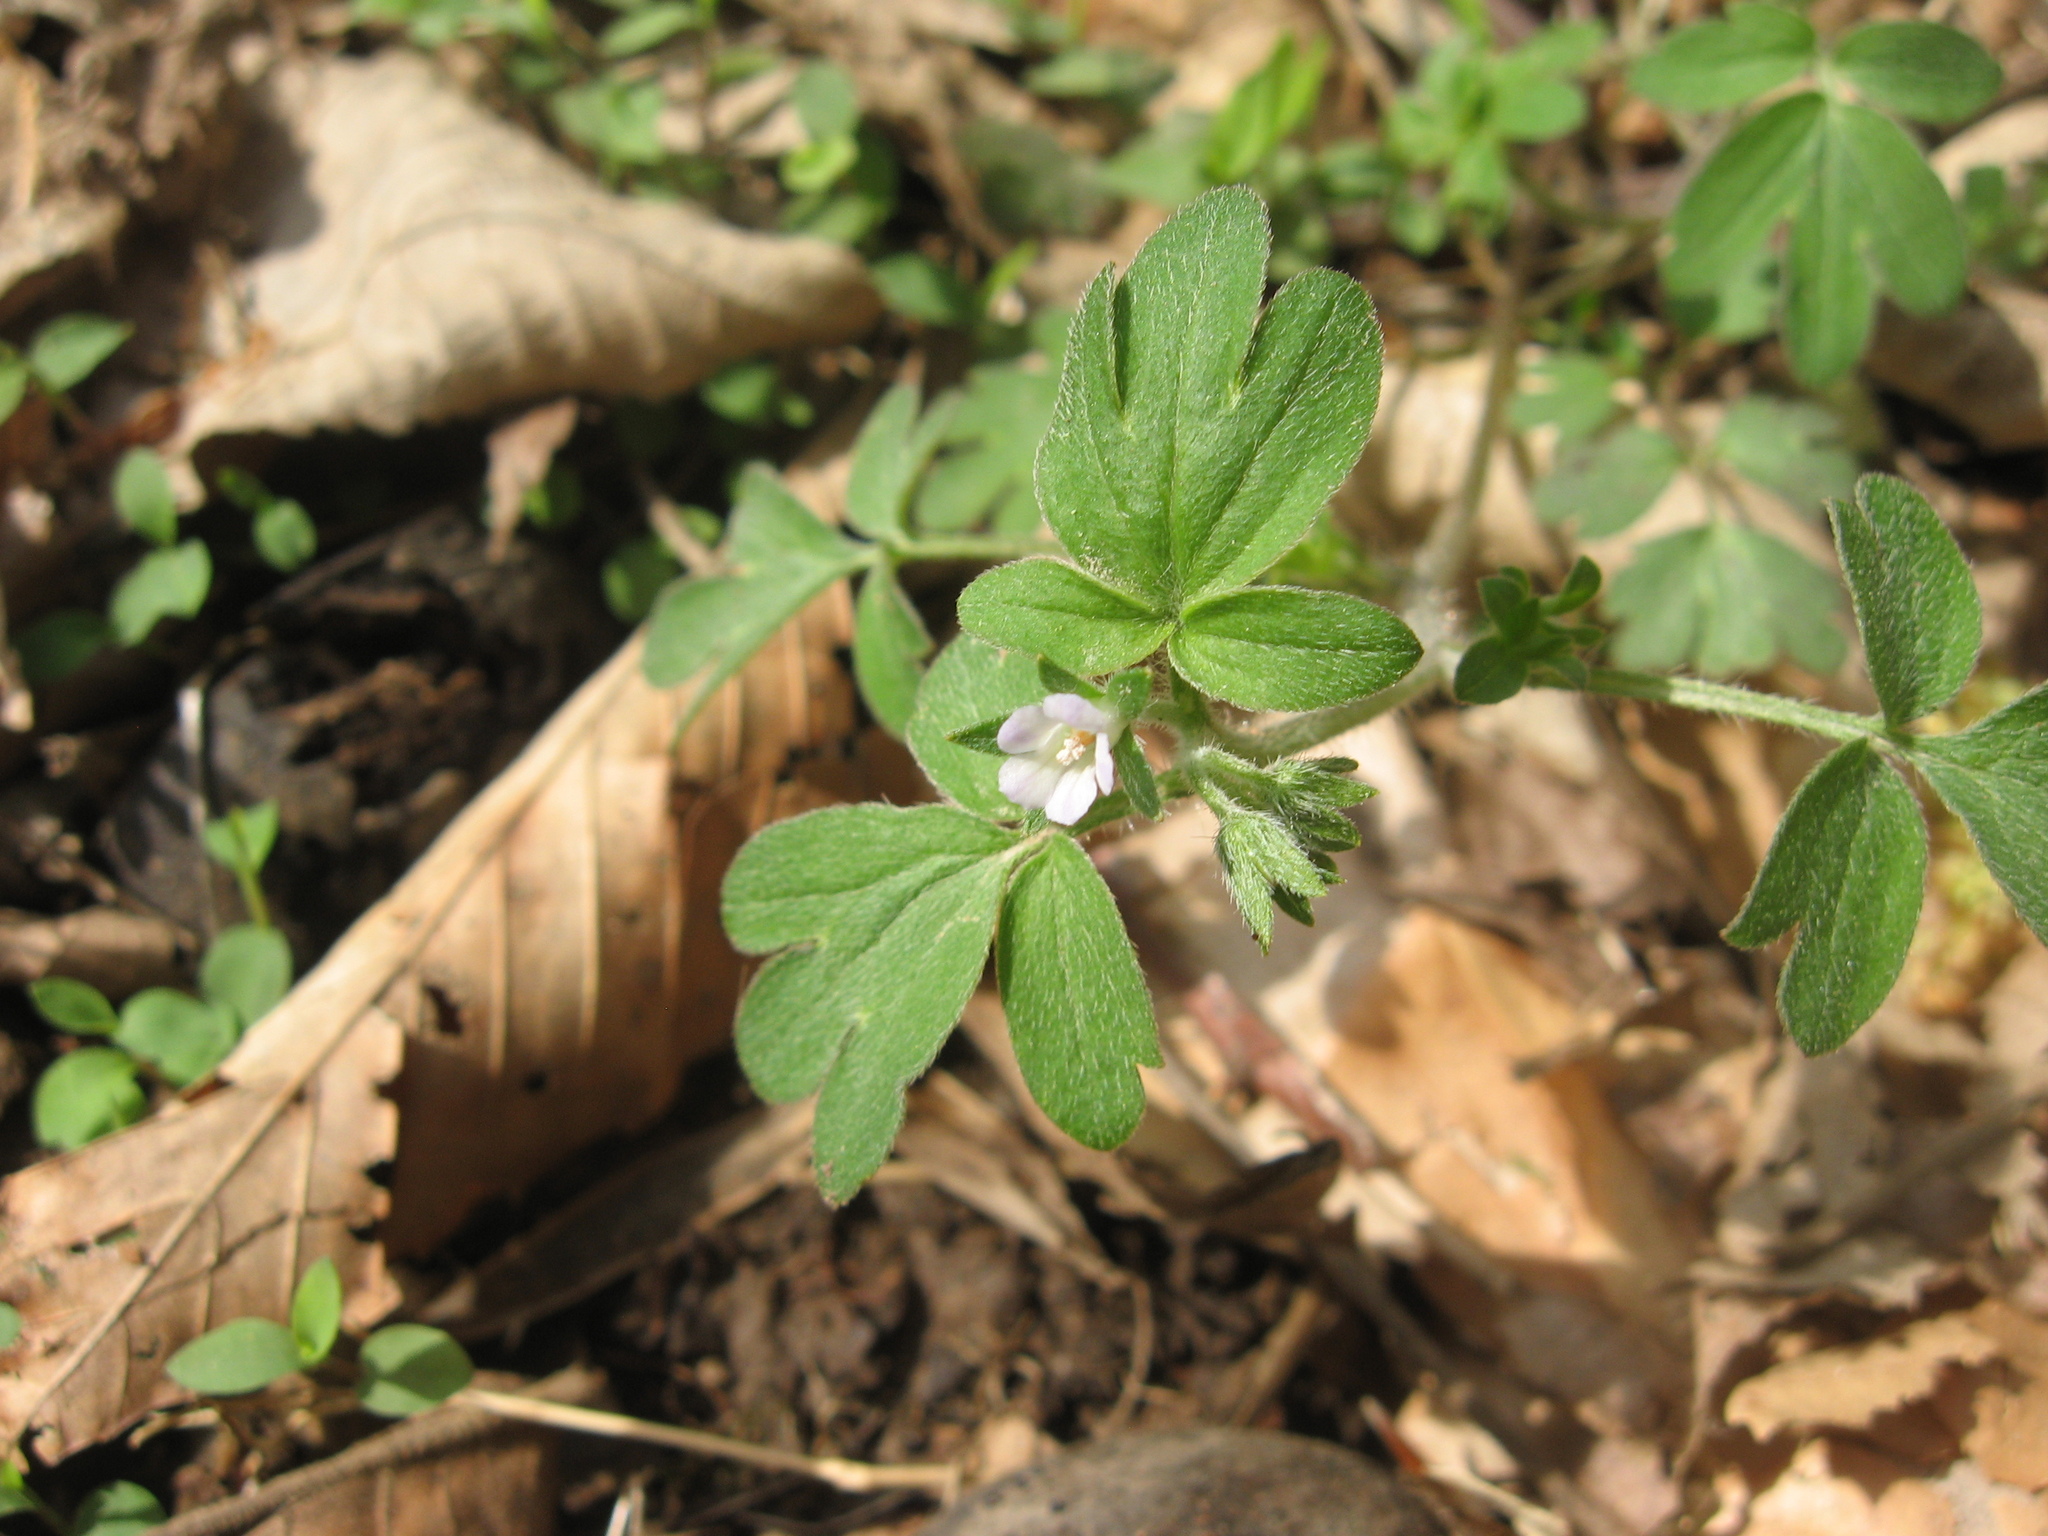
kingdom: Plantae
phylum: Tracheophyta
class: Magnoliopsida
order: Boraginales
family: Hydrophyllaceae
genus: Phacelia
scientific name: Phacelia ranunculacea
